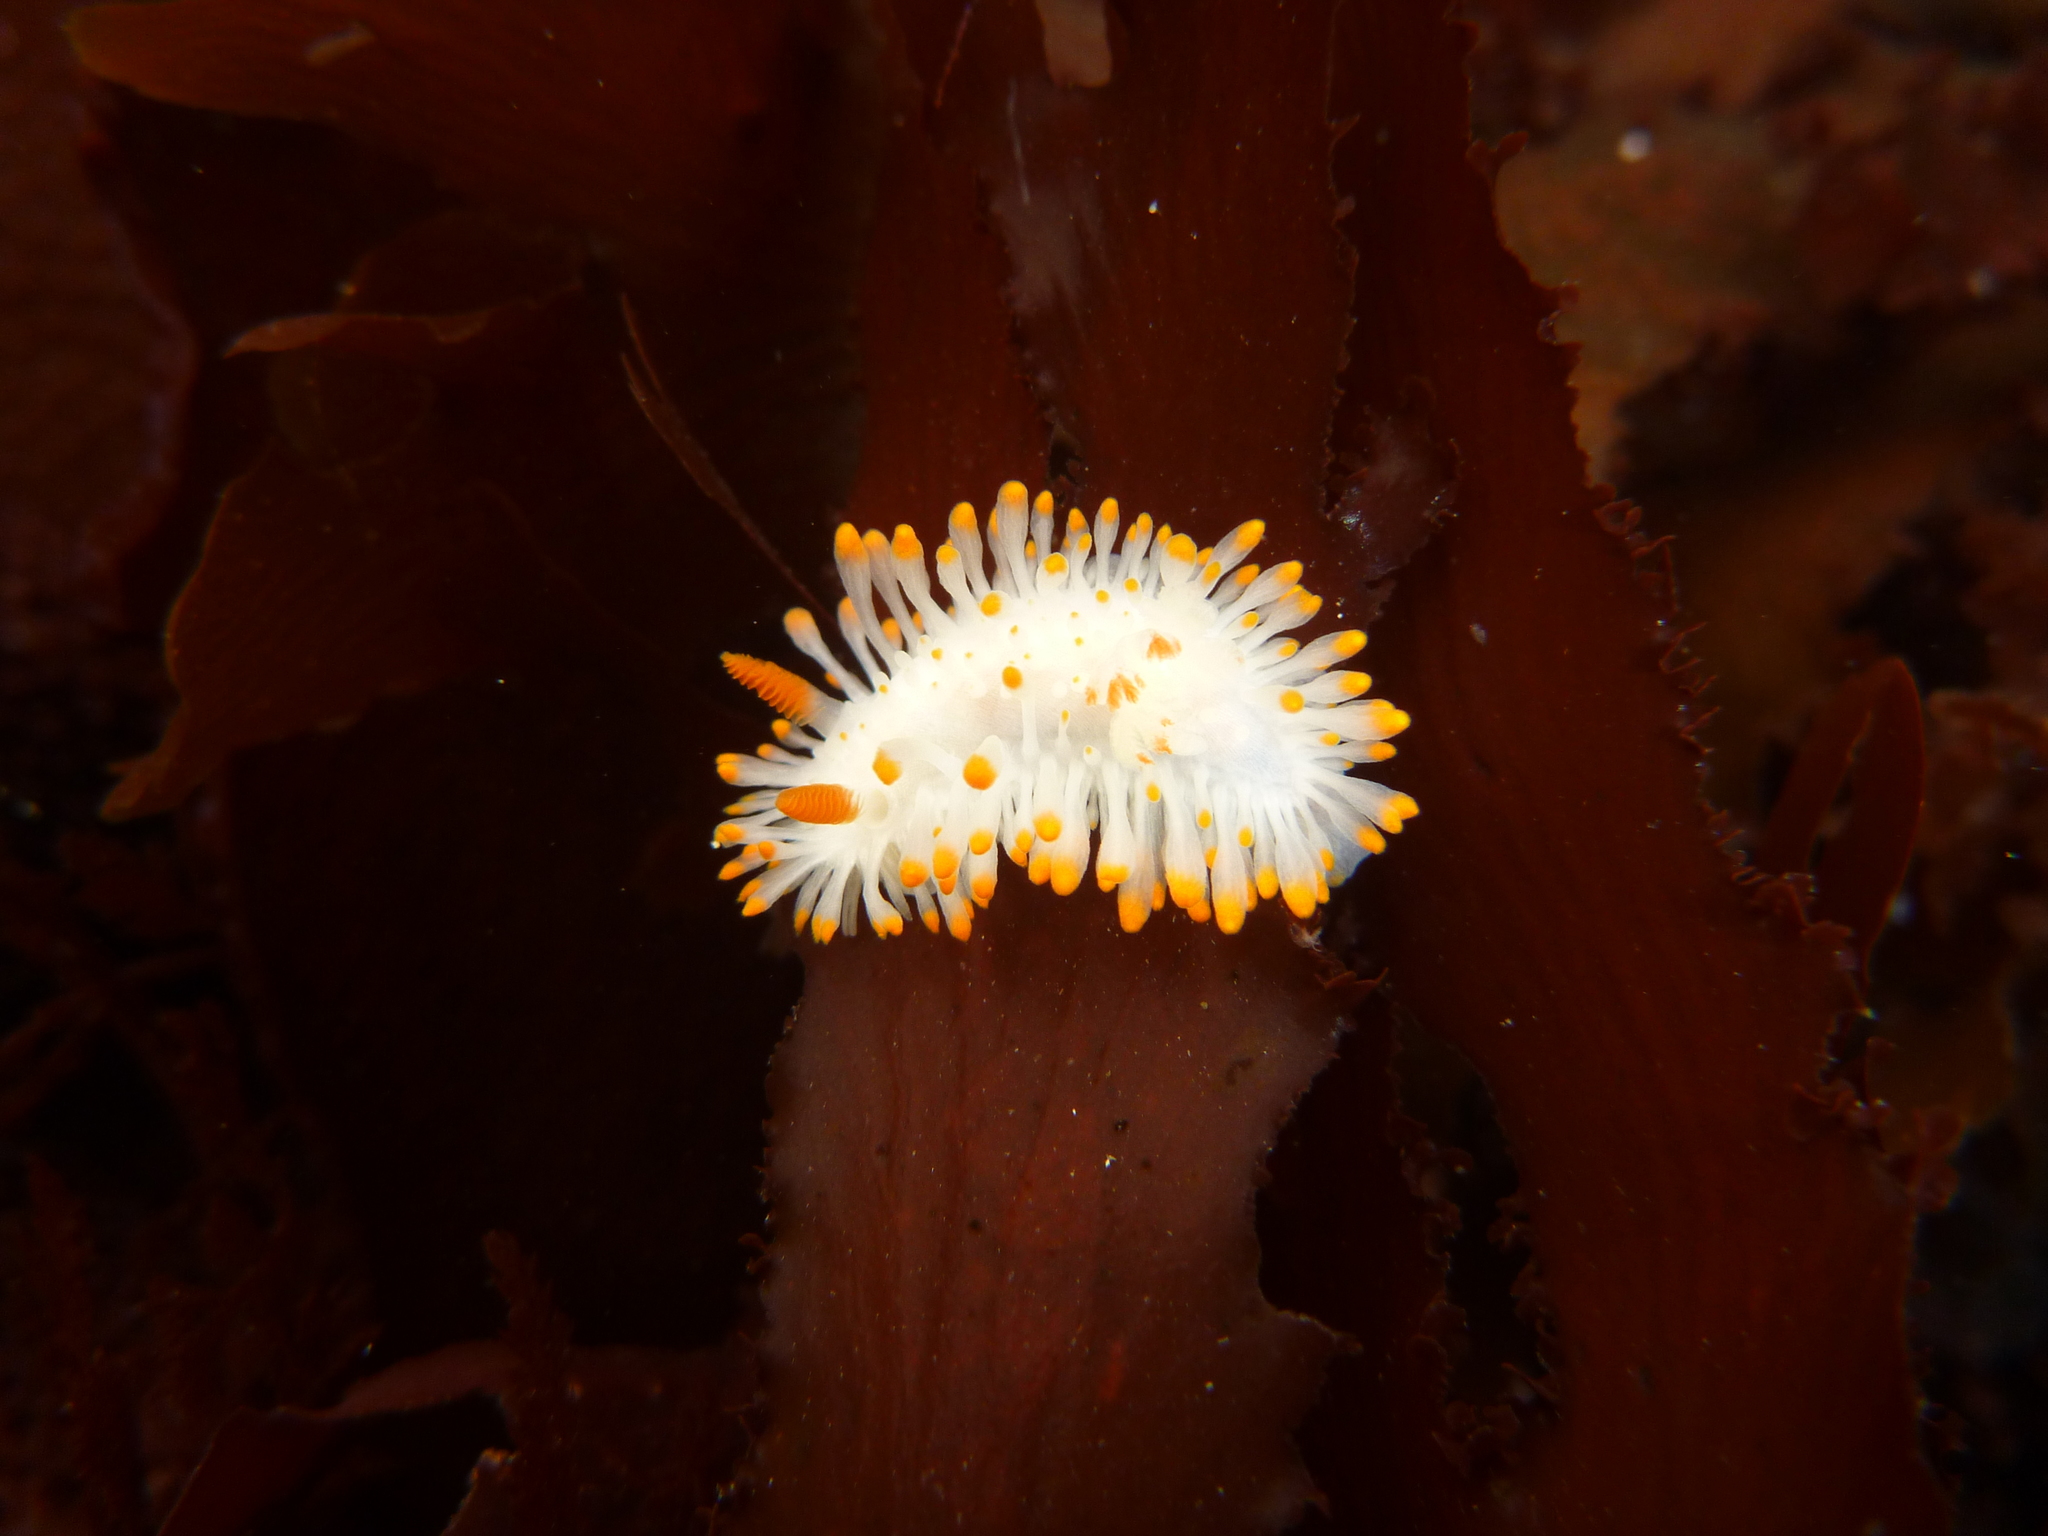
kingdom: Animalia
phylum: Mollusca
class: Gastropoda
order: Nudibranchia
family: Polyceridae
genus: Limacia
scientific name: Limacia cockerelli
